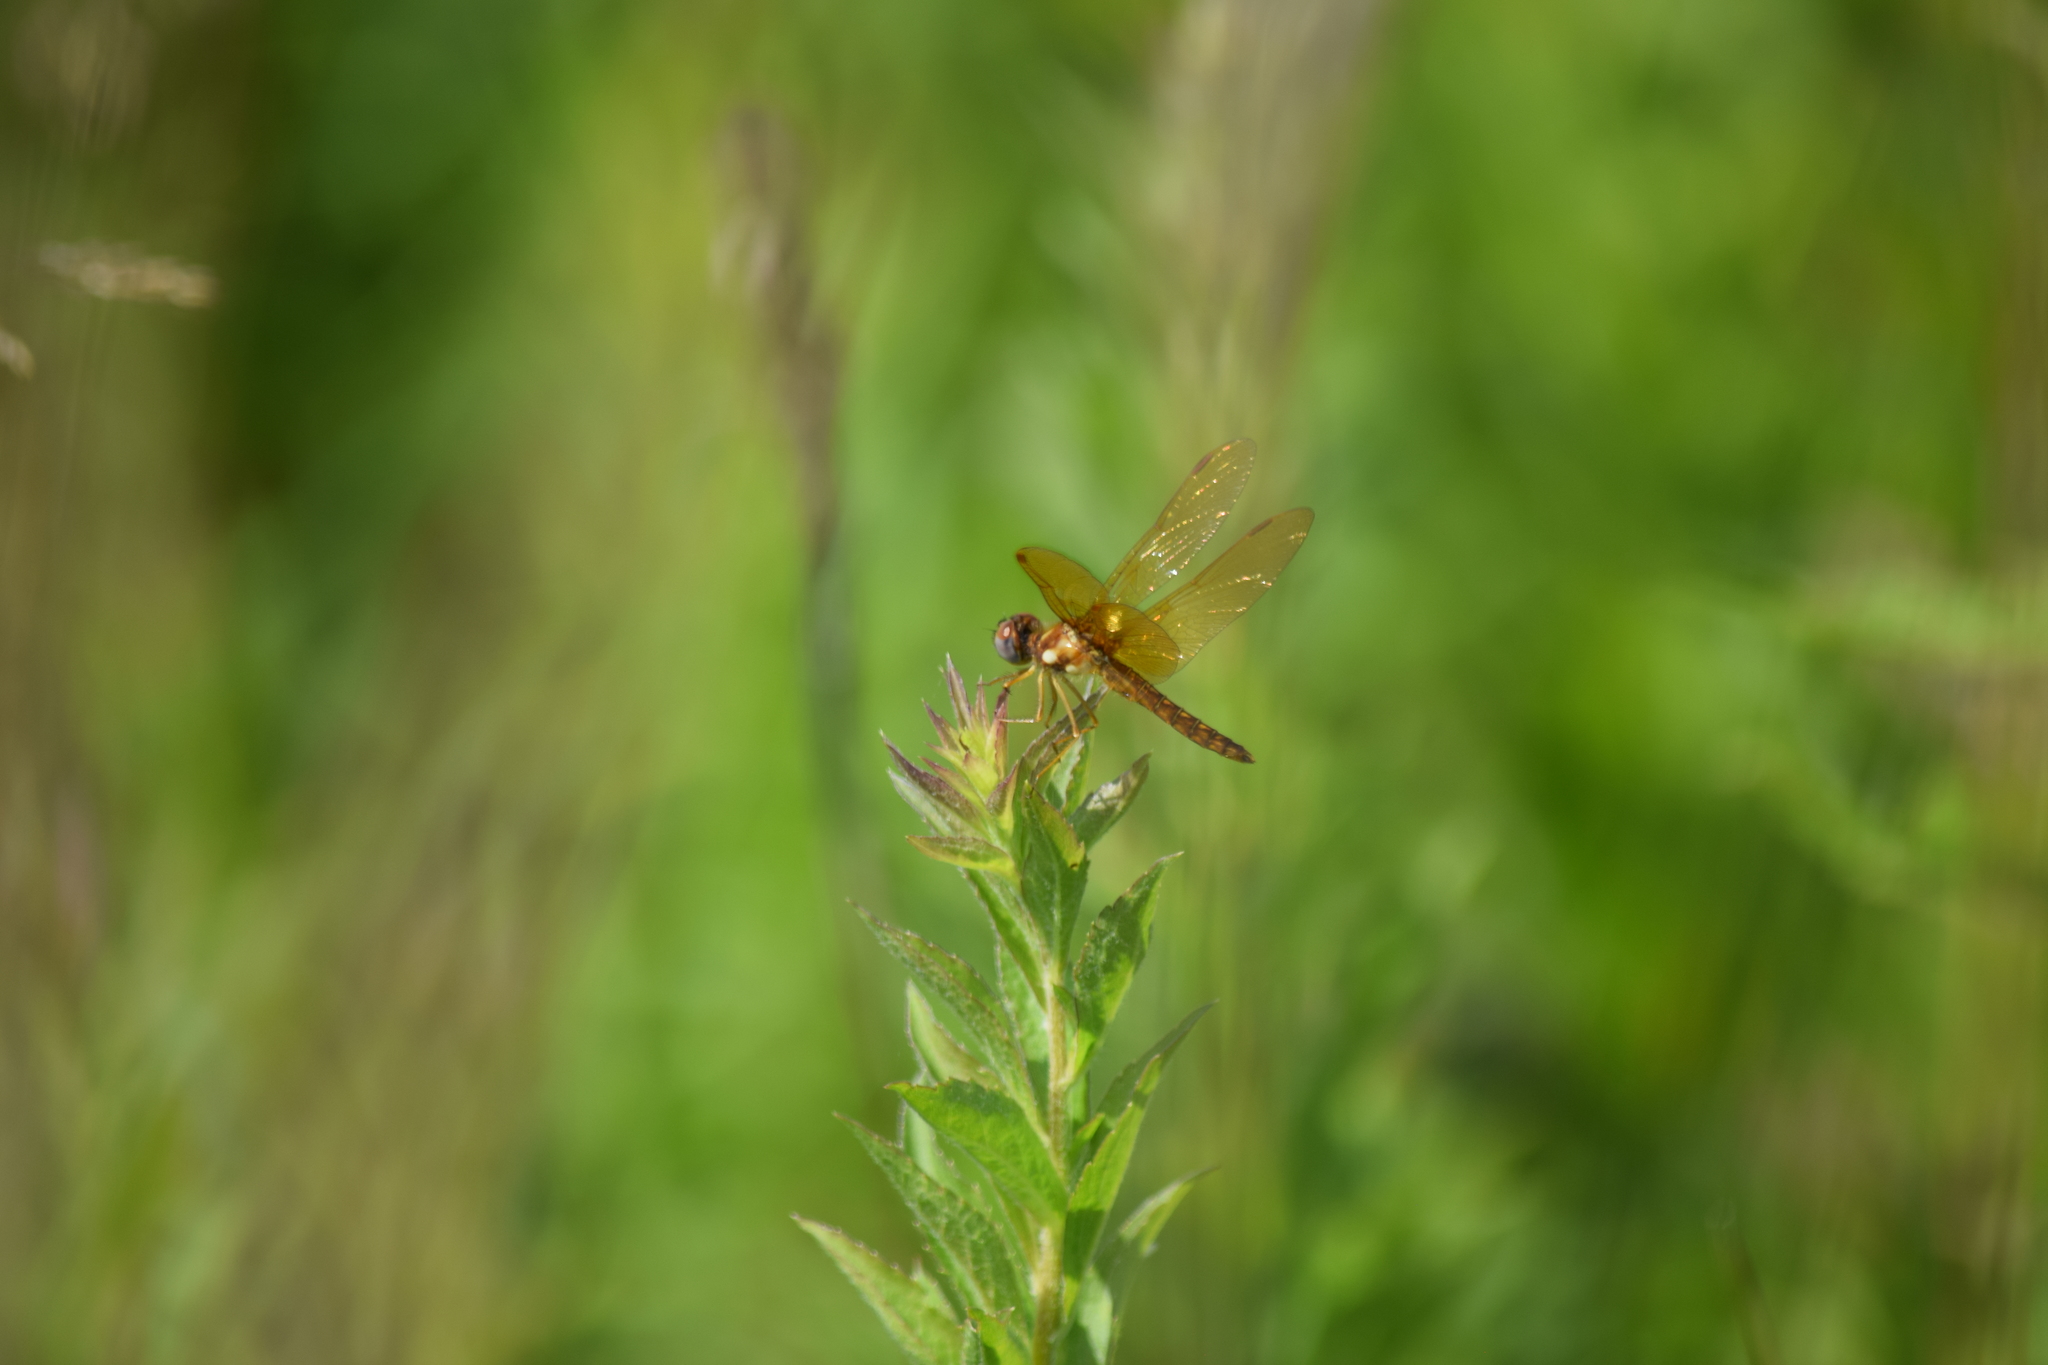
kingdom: Animalia
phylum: Arthropoda
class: Insecta
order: Odonata
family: Libellulidae
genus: Perithemis
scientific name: Perithemis tenera
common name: Eastern amberwing
